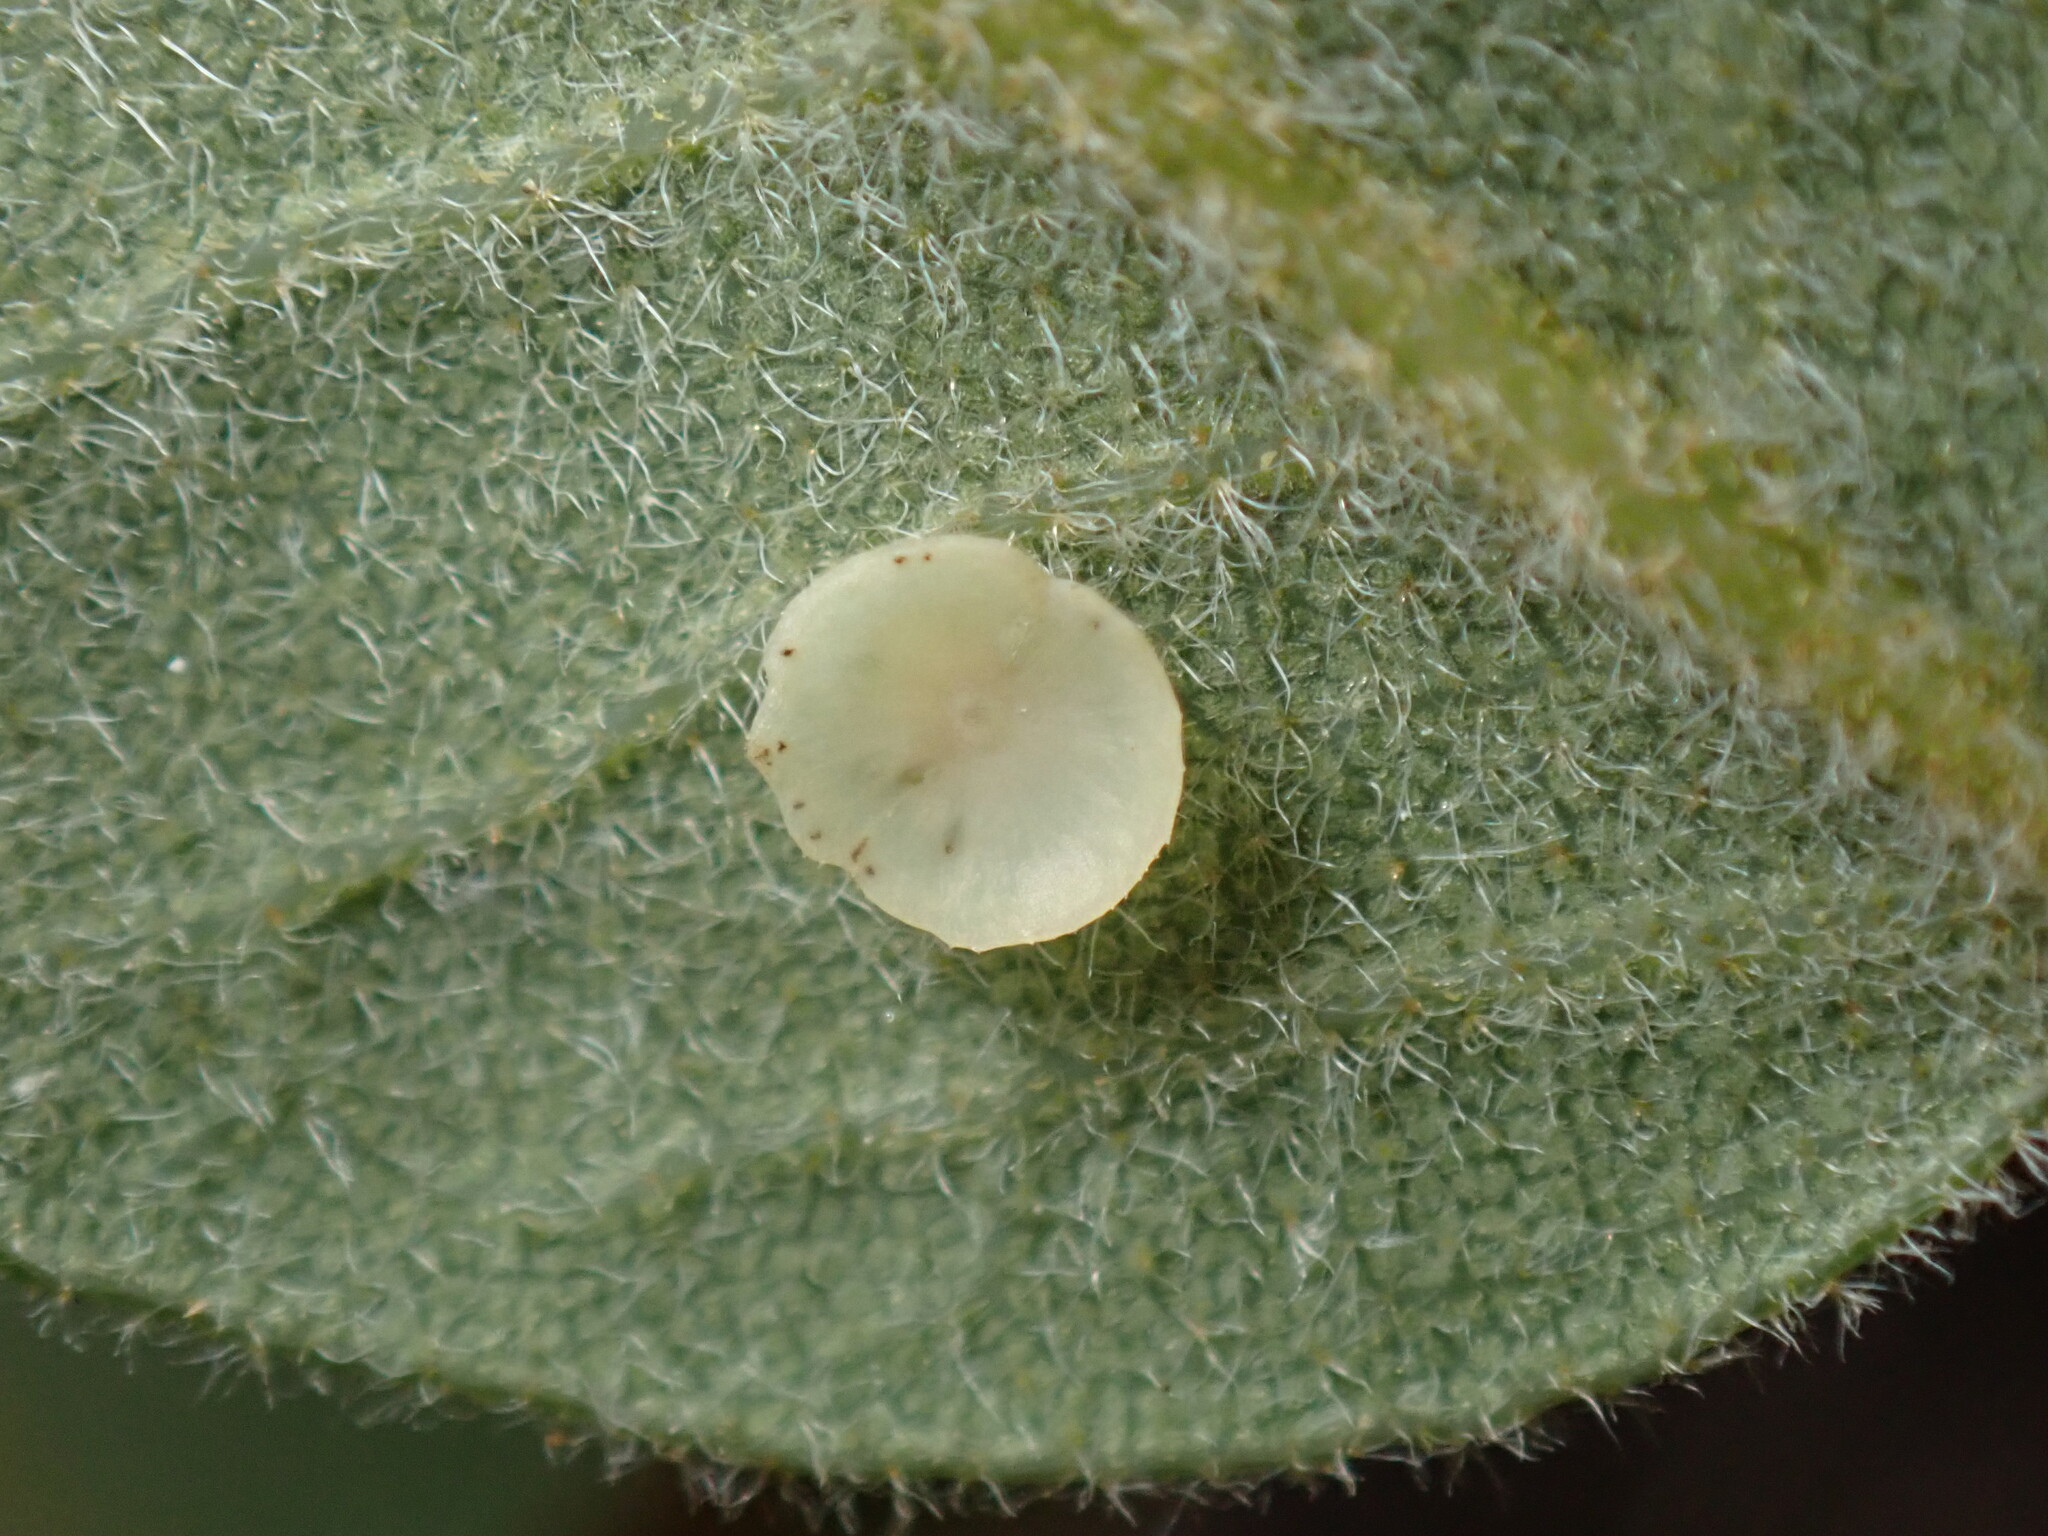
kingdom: Animalia
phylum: Arthropoda
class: Insecta
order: Hymenoptera
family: Cynipidae
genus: Andricus
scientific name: Andricus
